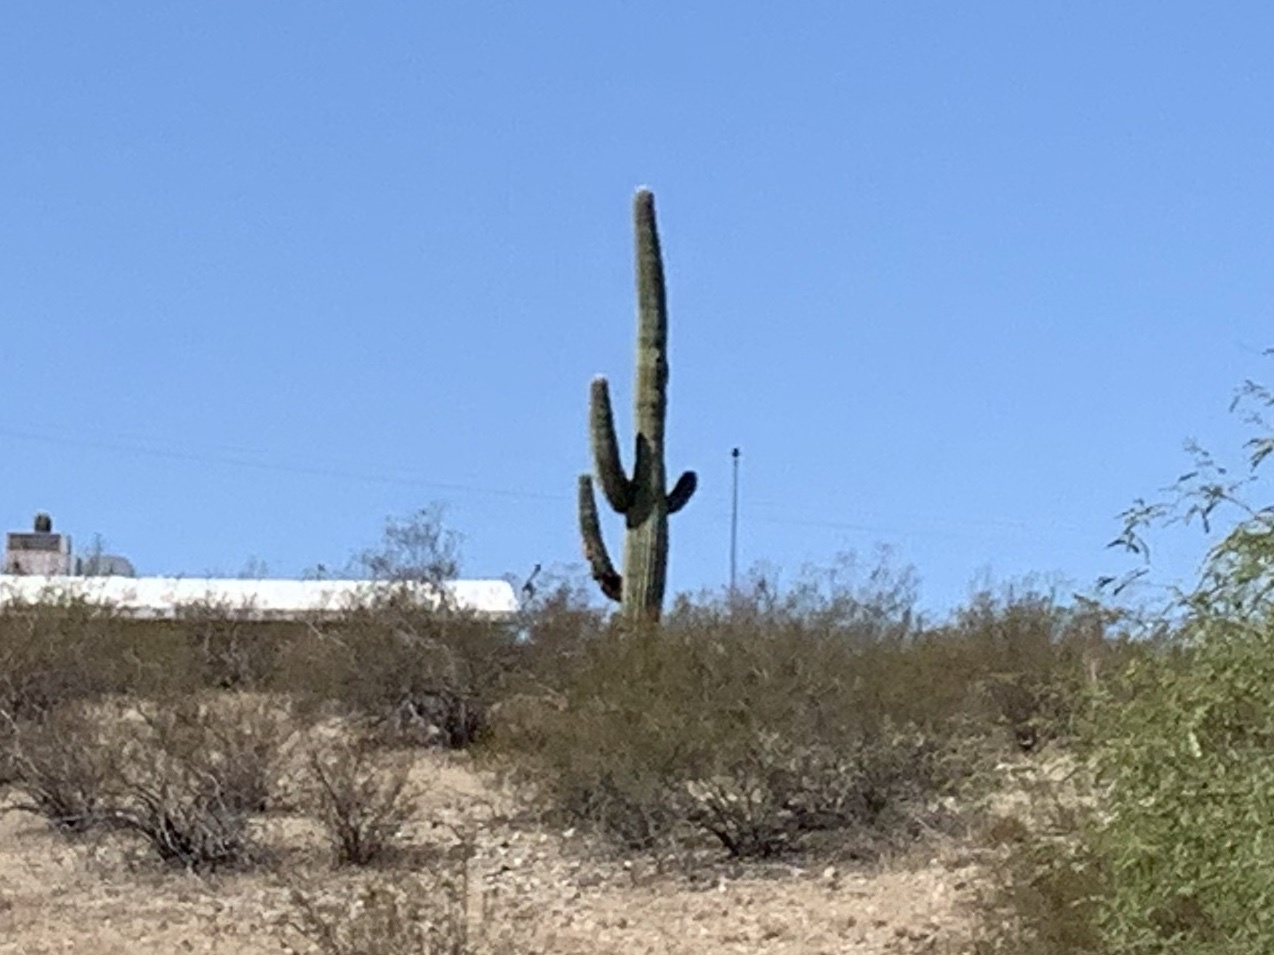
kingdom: Plantae
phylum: Tracheophyta
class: Magnoliopsida
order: Caryophyllales
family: Cactaceae
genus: Carnegiea
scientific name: Carnegiea gigantea
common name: Saguaro
